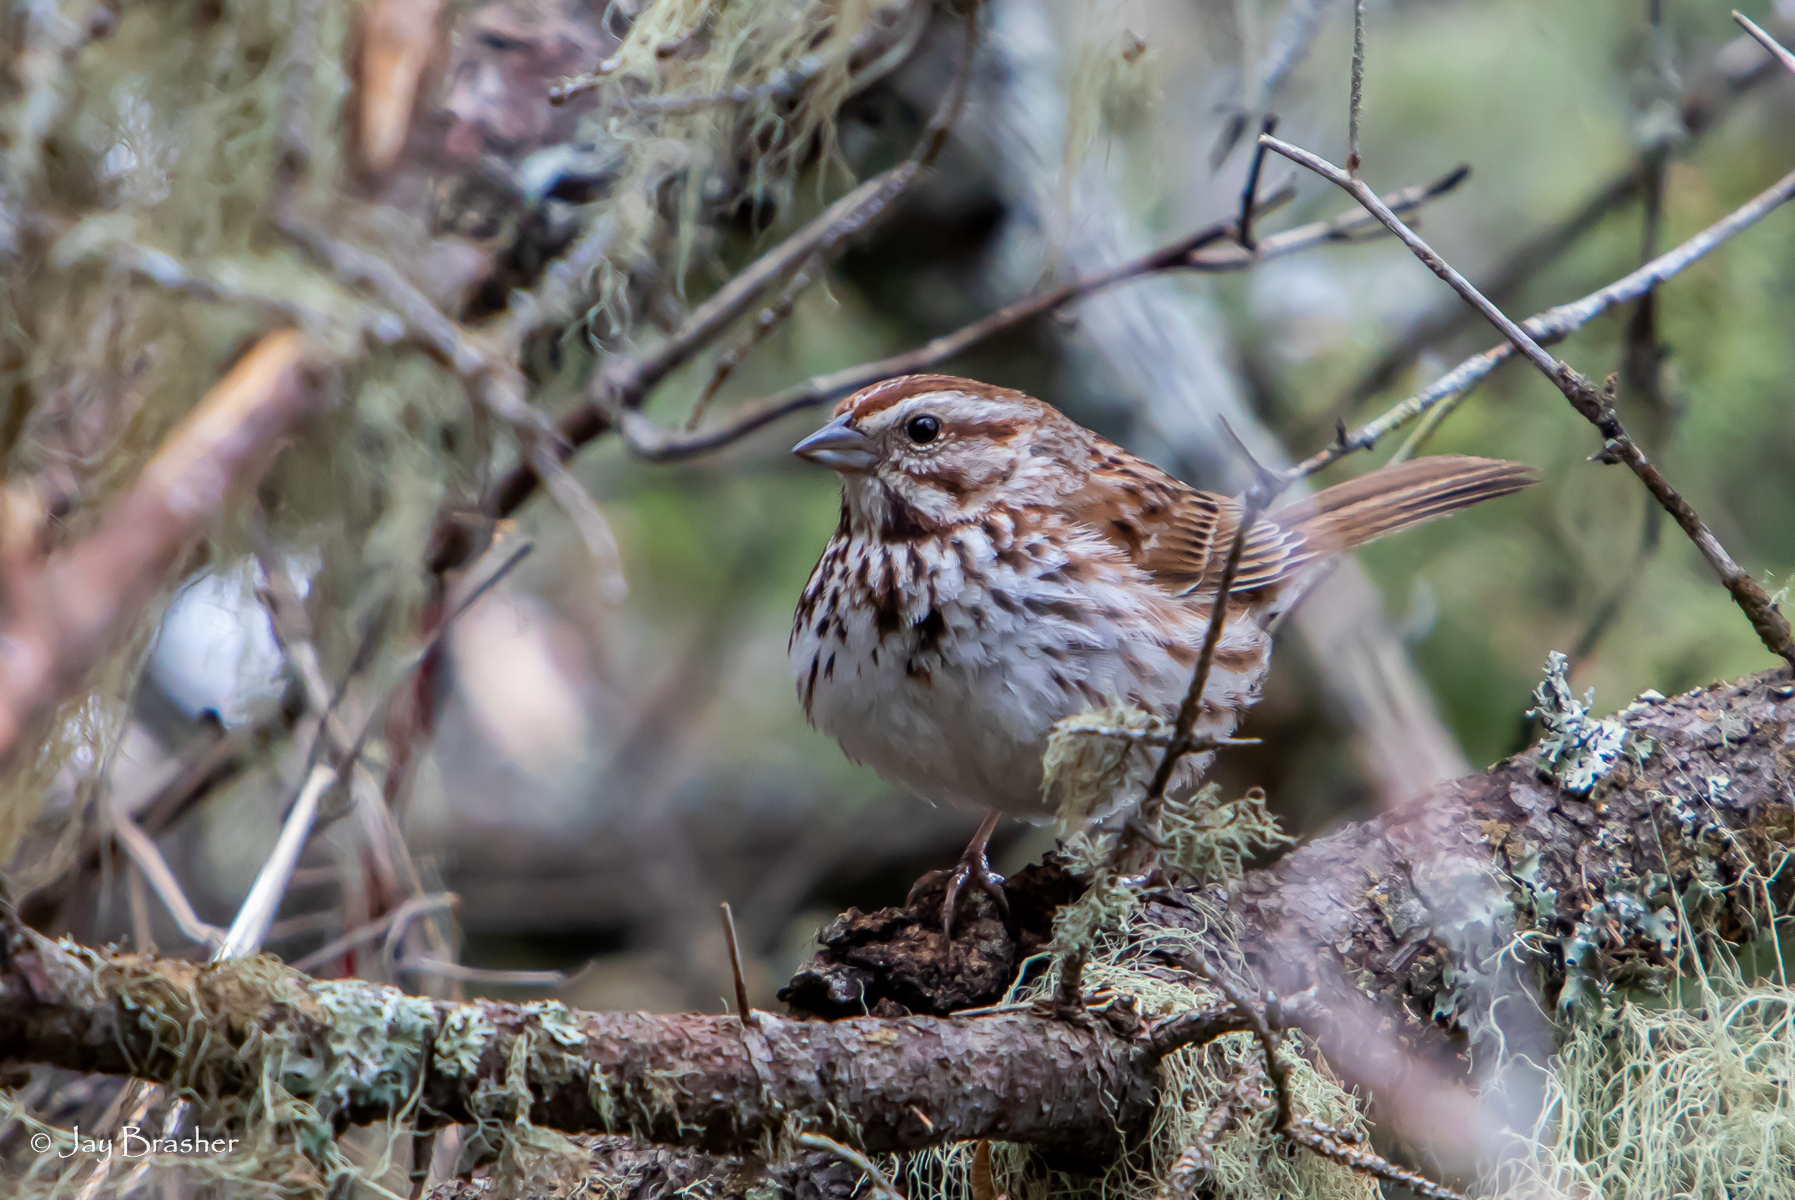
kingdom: Animalia
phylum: Chordata
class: Aves
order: Passeriformes
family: Passerellidae
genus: Melospiza
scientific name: Melospiza melodia
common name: Song sparrow
